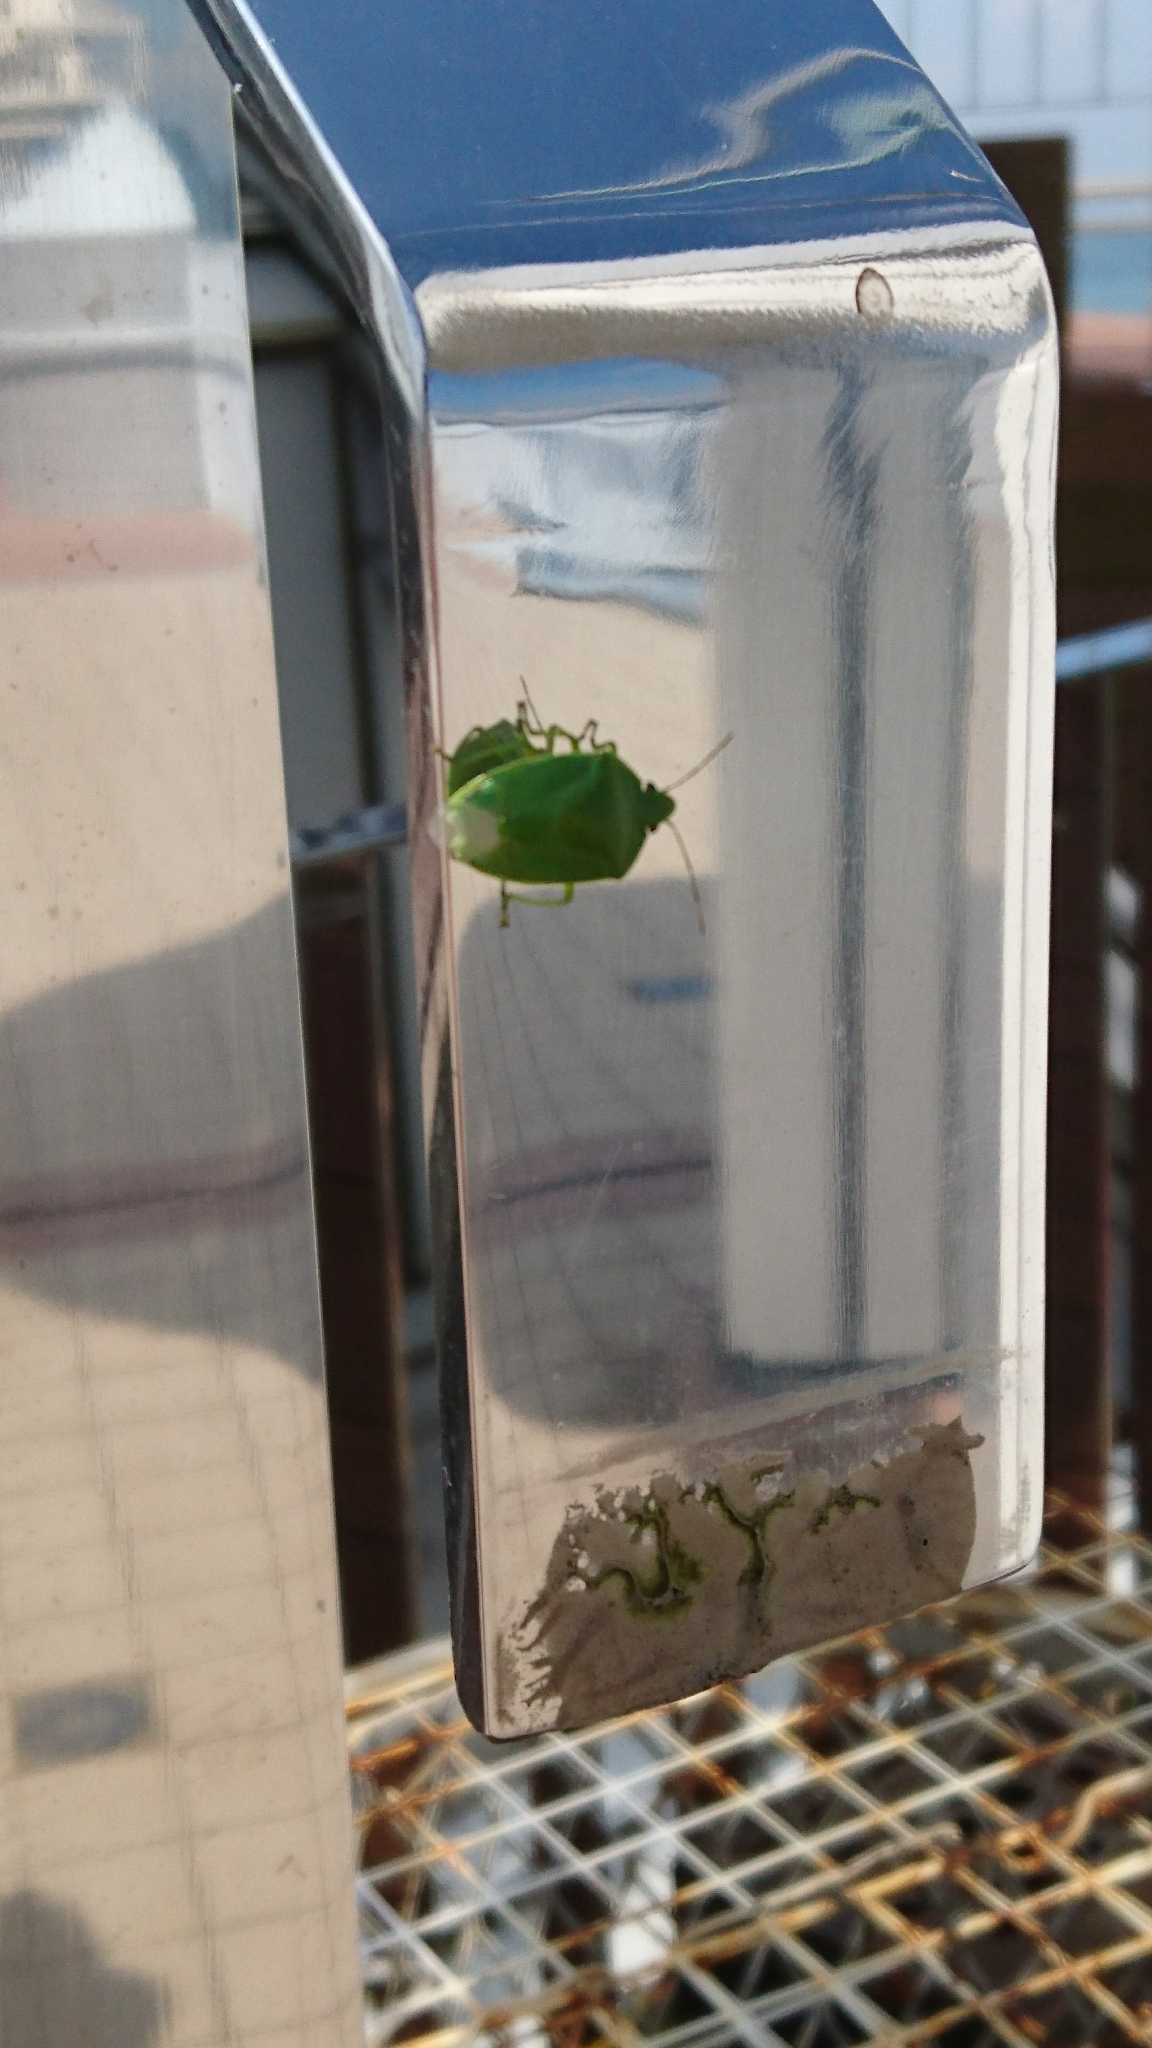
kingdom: Animalia
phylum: Arthropoda
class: Insecta
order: Hemiptera
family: Pentatomidae
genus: Glaucias
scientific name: Glaucias subpunctatus
